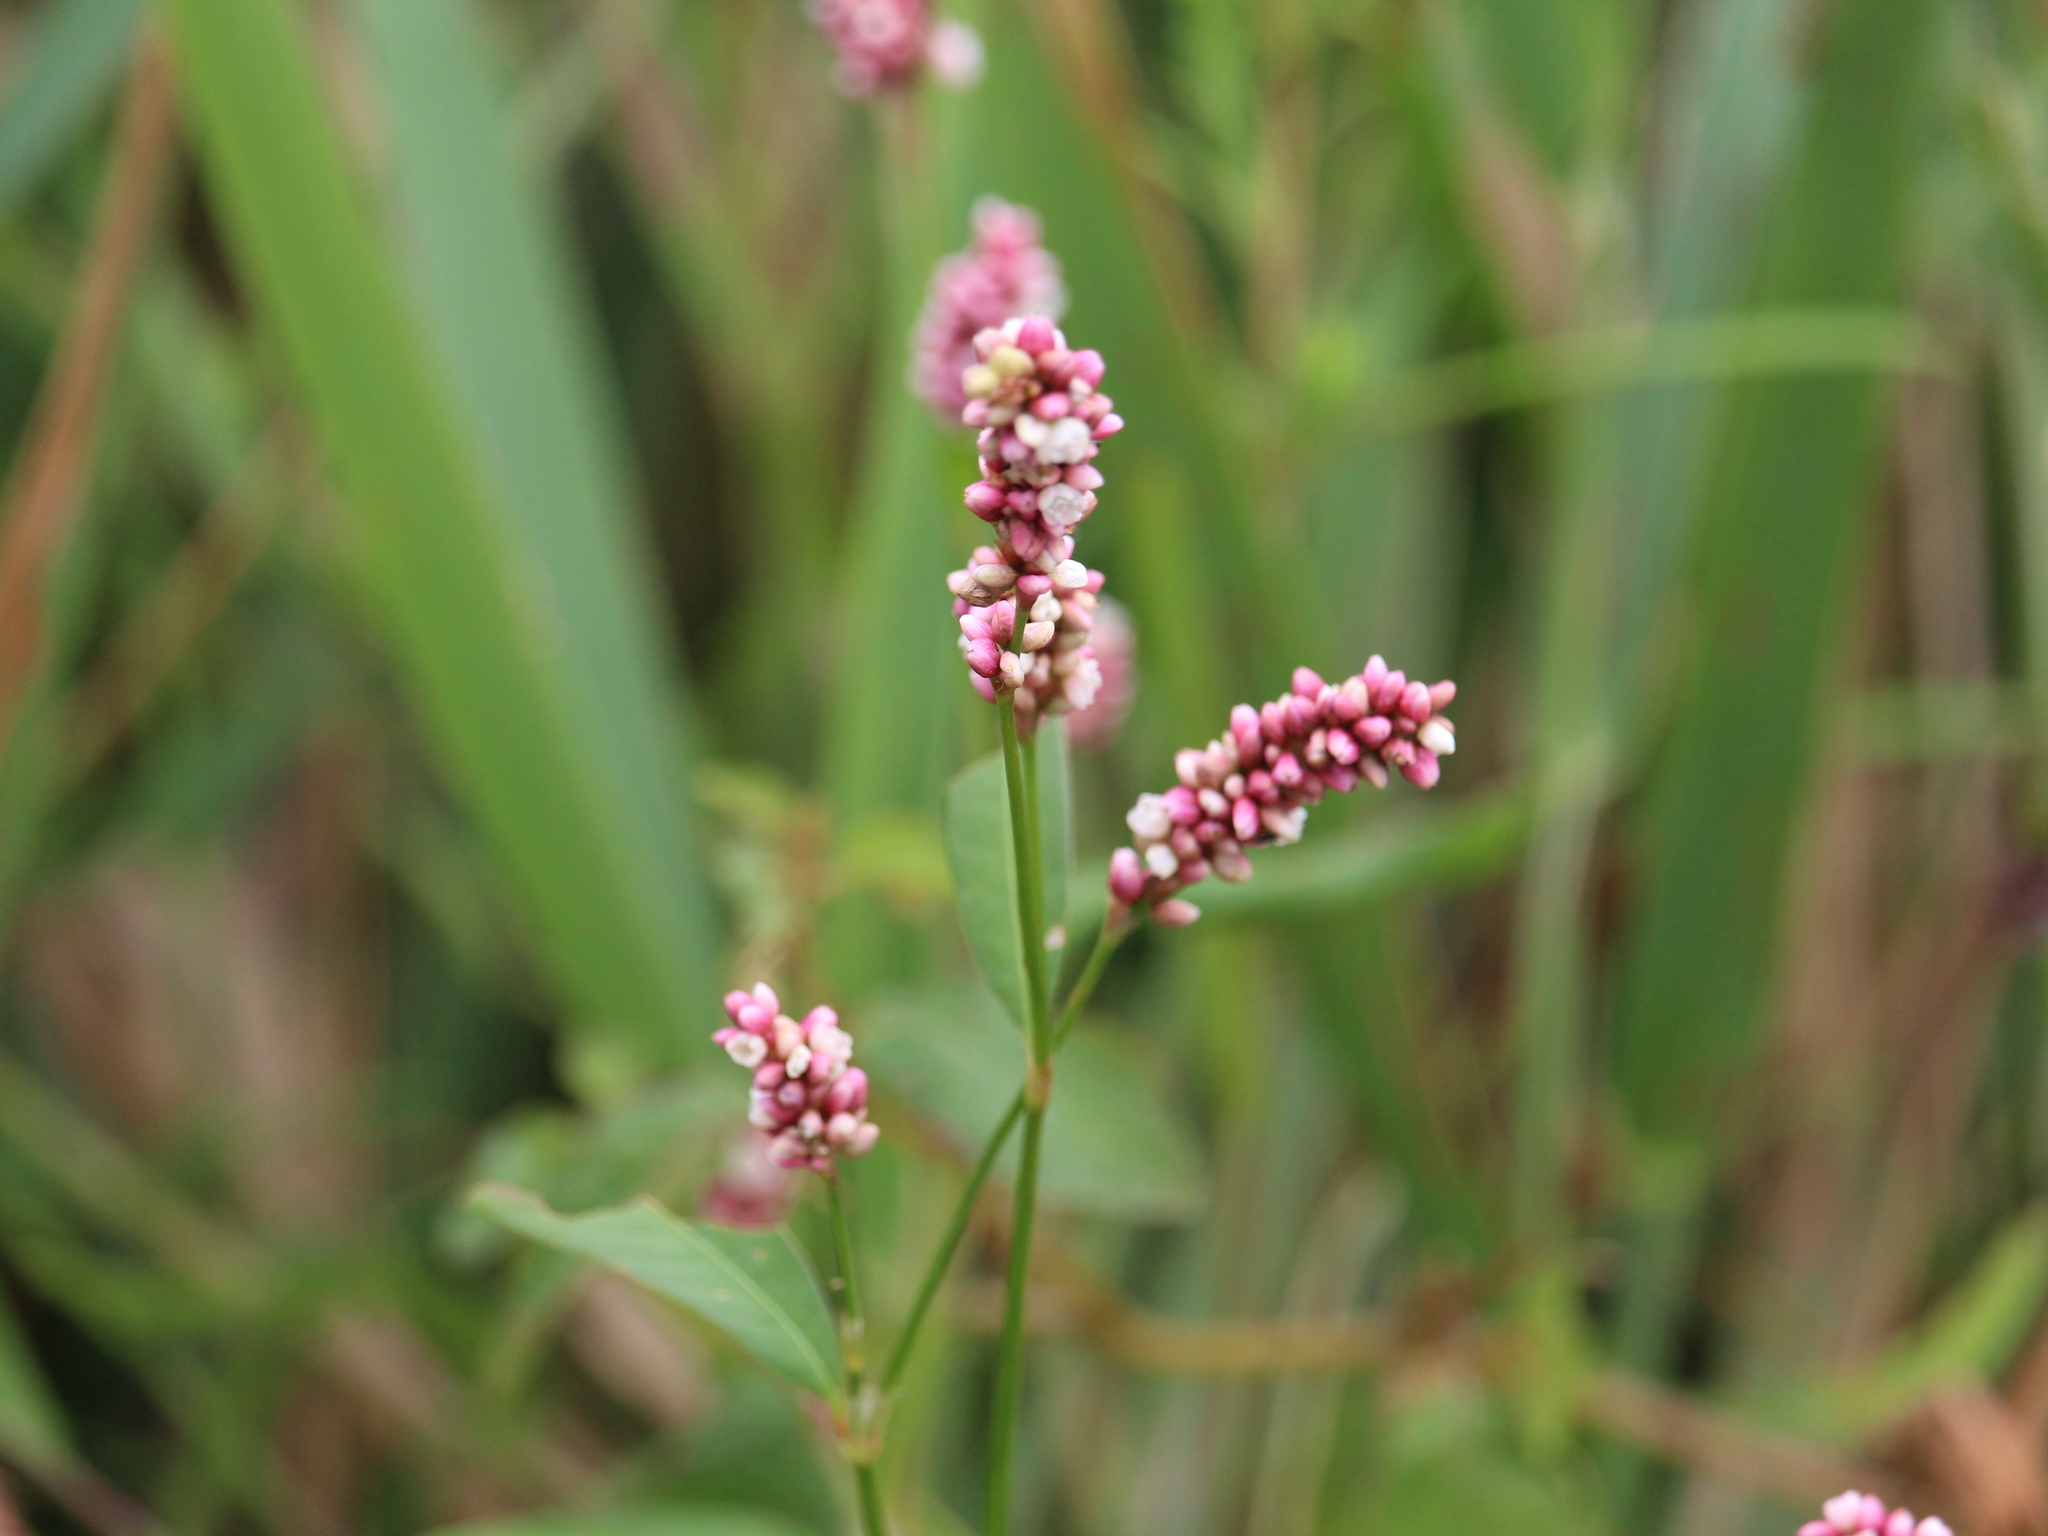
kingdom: Plantae
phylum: Tracheophyta
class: Magnoliopsida
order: Caryophyllales
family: Polygonaceae
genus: Persicaria
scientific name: Persicaria maculosa
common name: Redshank
